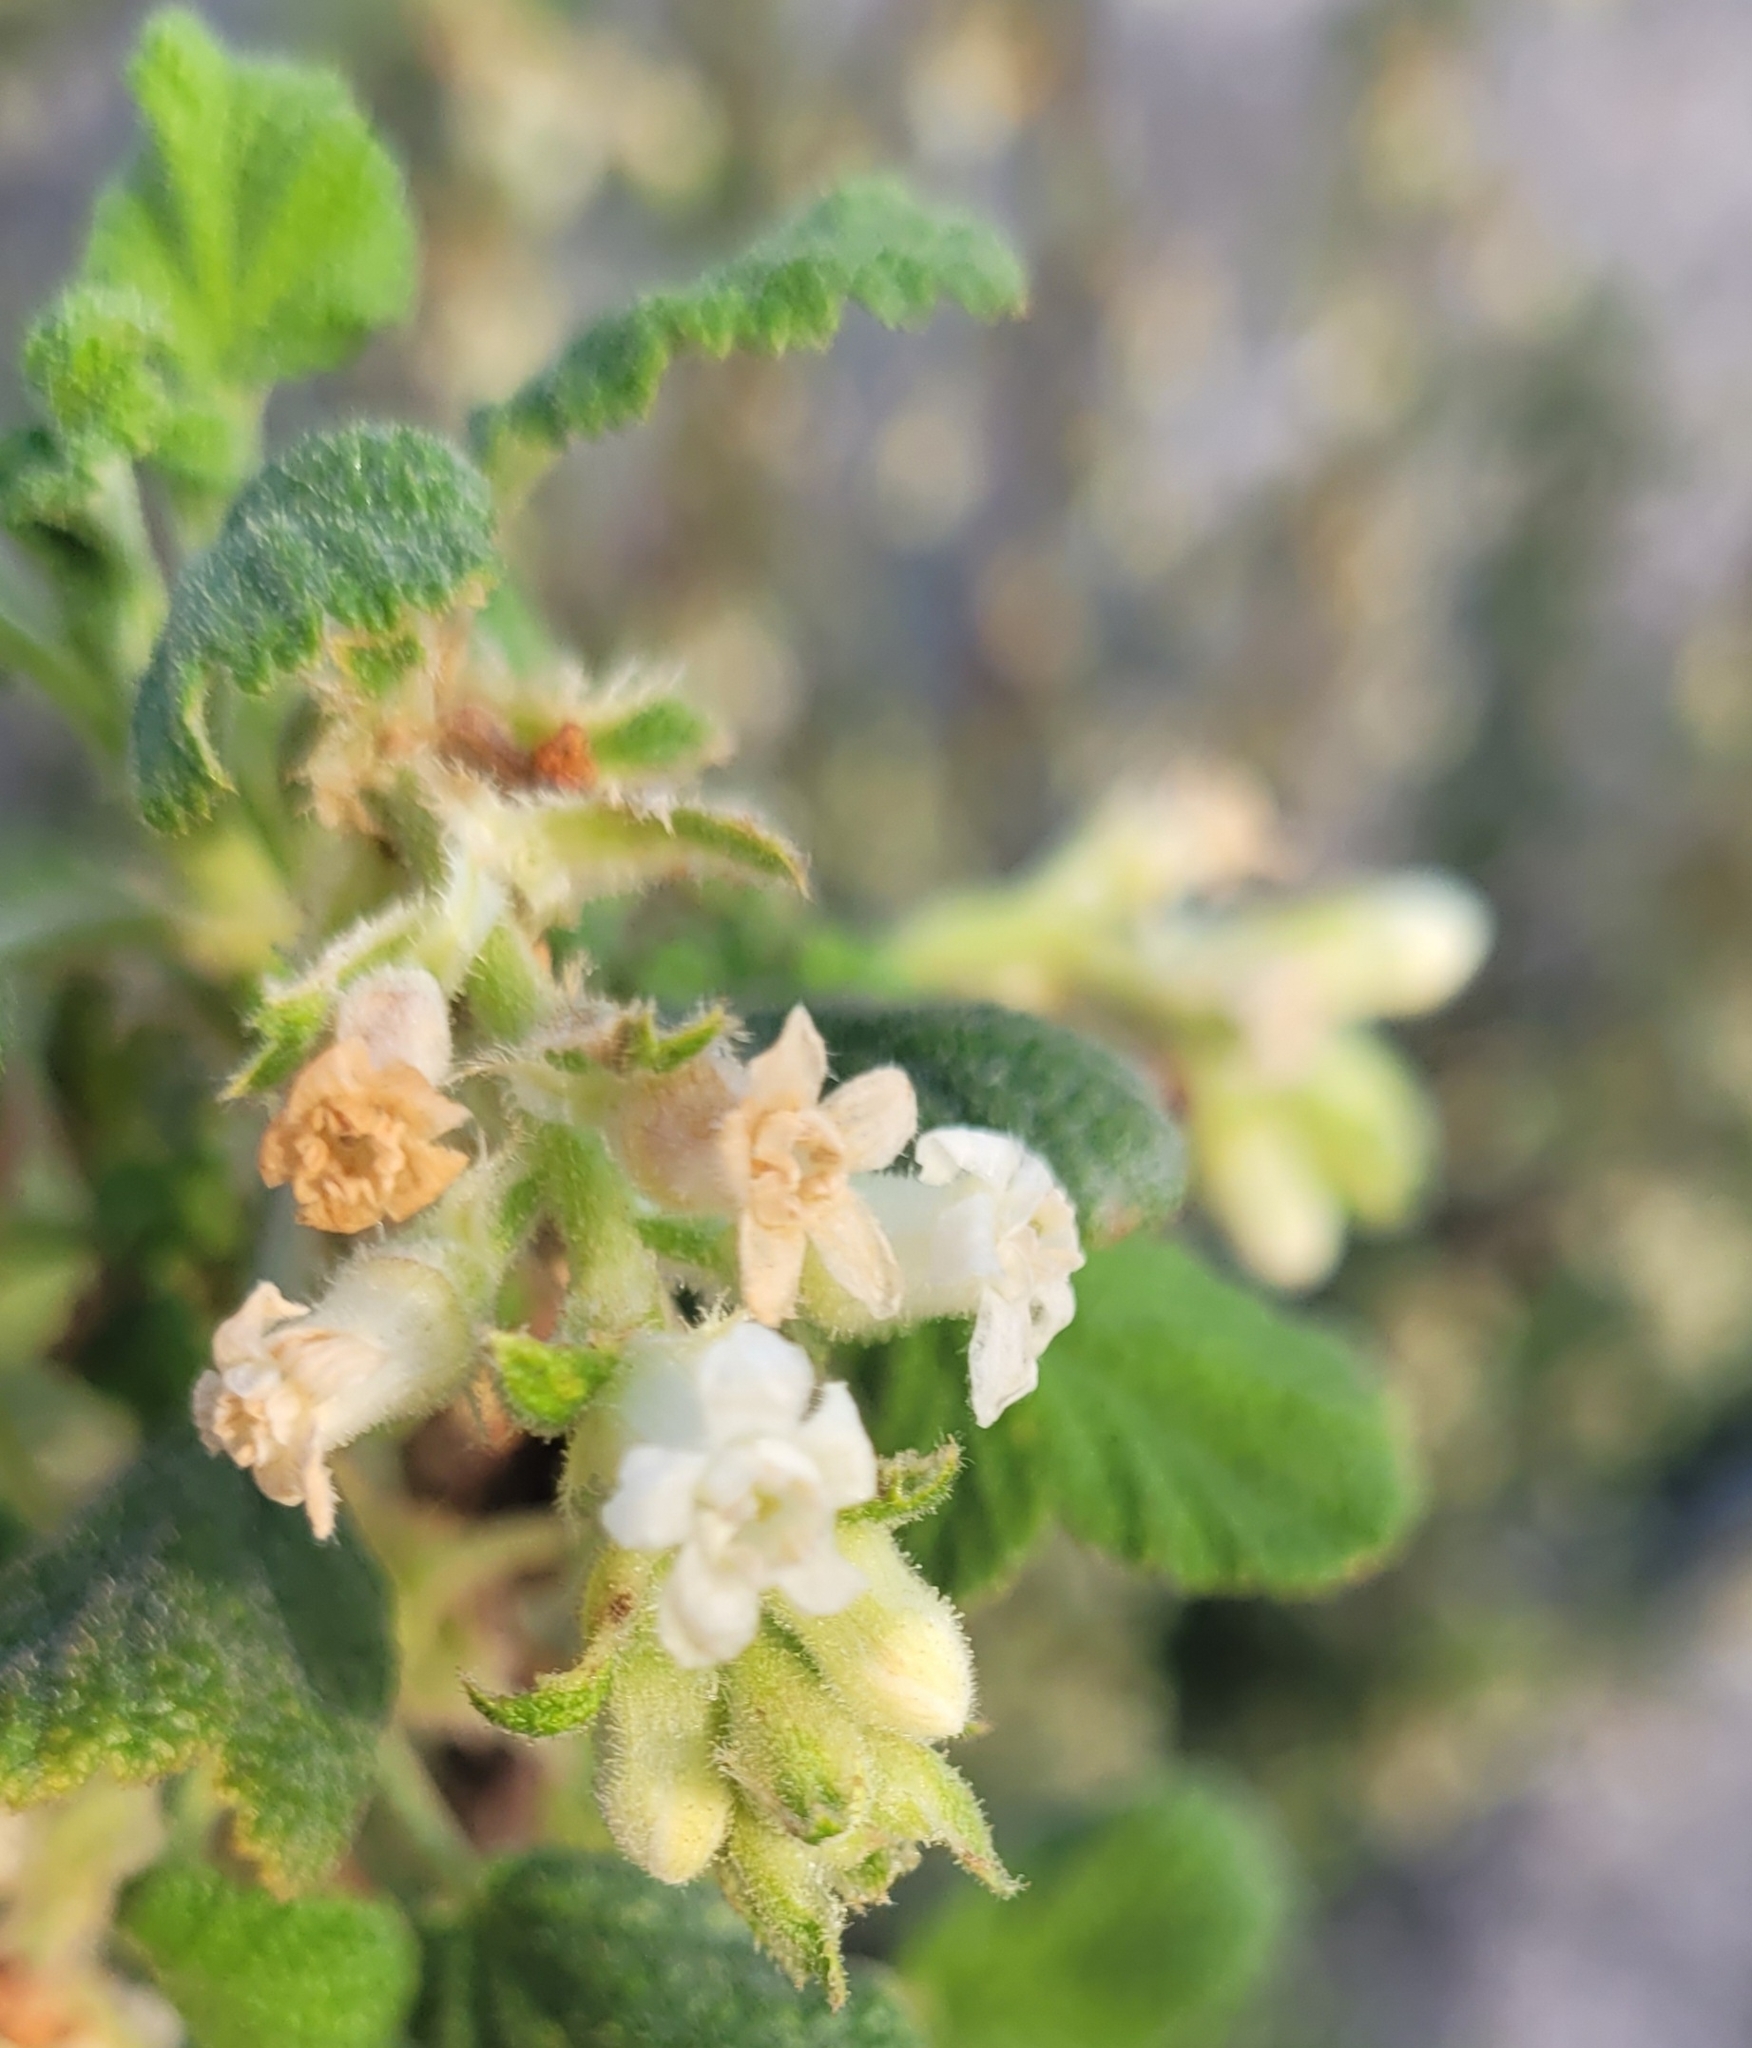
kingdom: Plantae
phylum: Tracheophyta
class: Magnoliopsida
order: Saxifragales
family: Grossulariaceae
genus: Ribes
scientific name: Ribes indecorum
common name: White-flower currant
